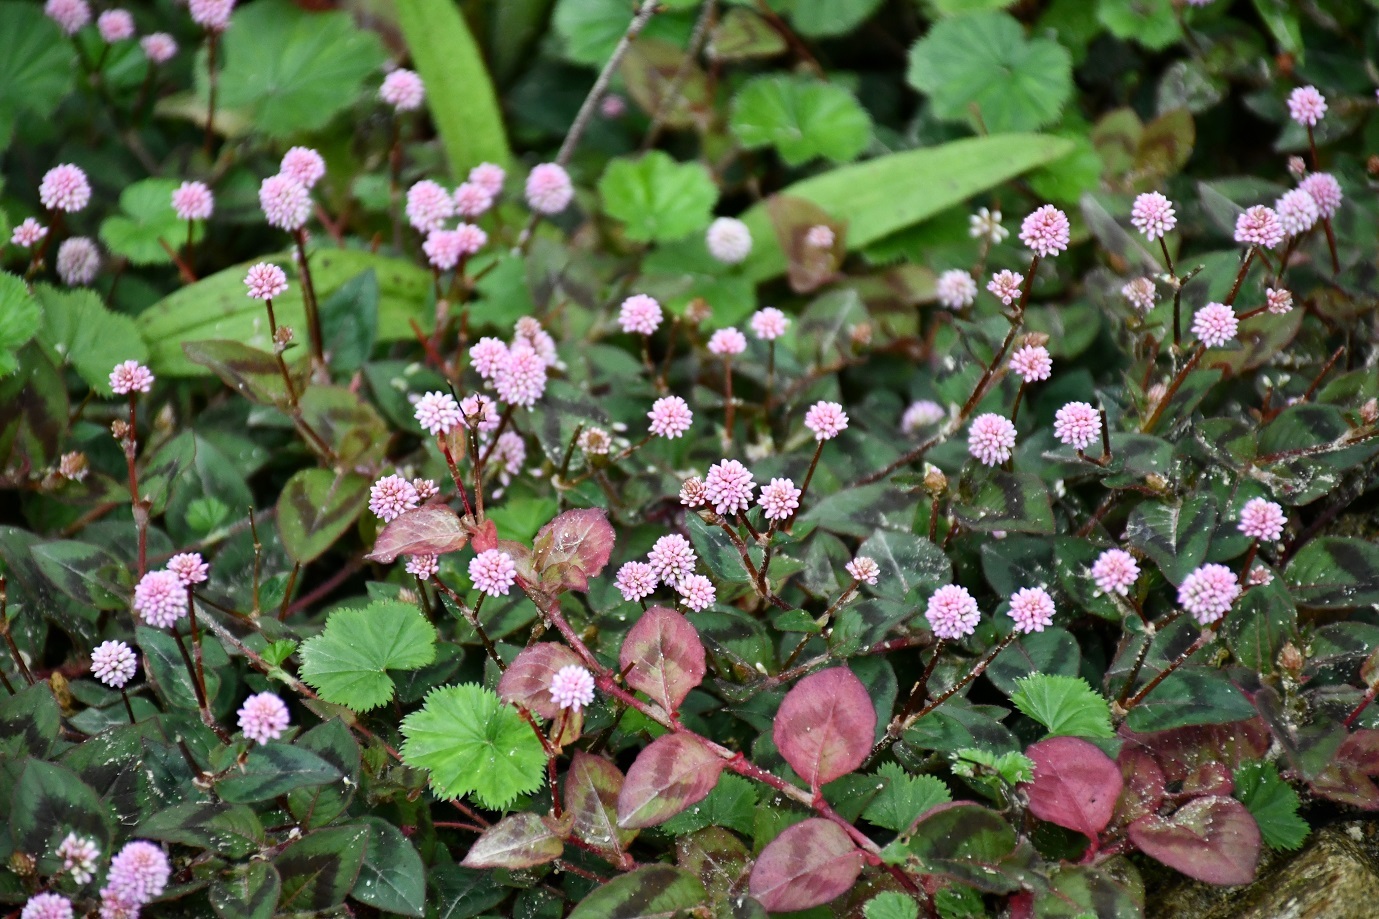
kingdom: Plantae
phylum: Tracheophyta
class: Magnoliopsida
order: Caryophyllales
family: Polygonaceae
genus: Persicaria
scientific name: Persicaria capitata
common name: Pinkhead smartweed
